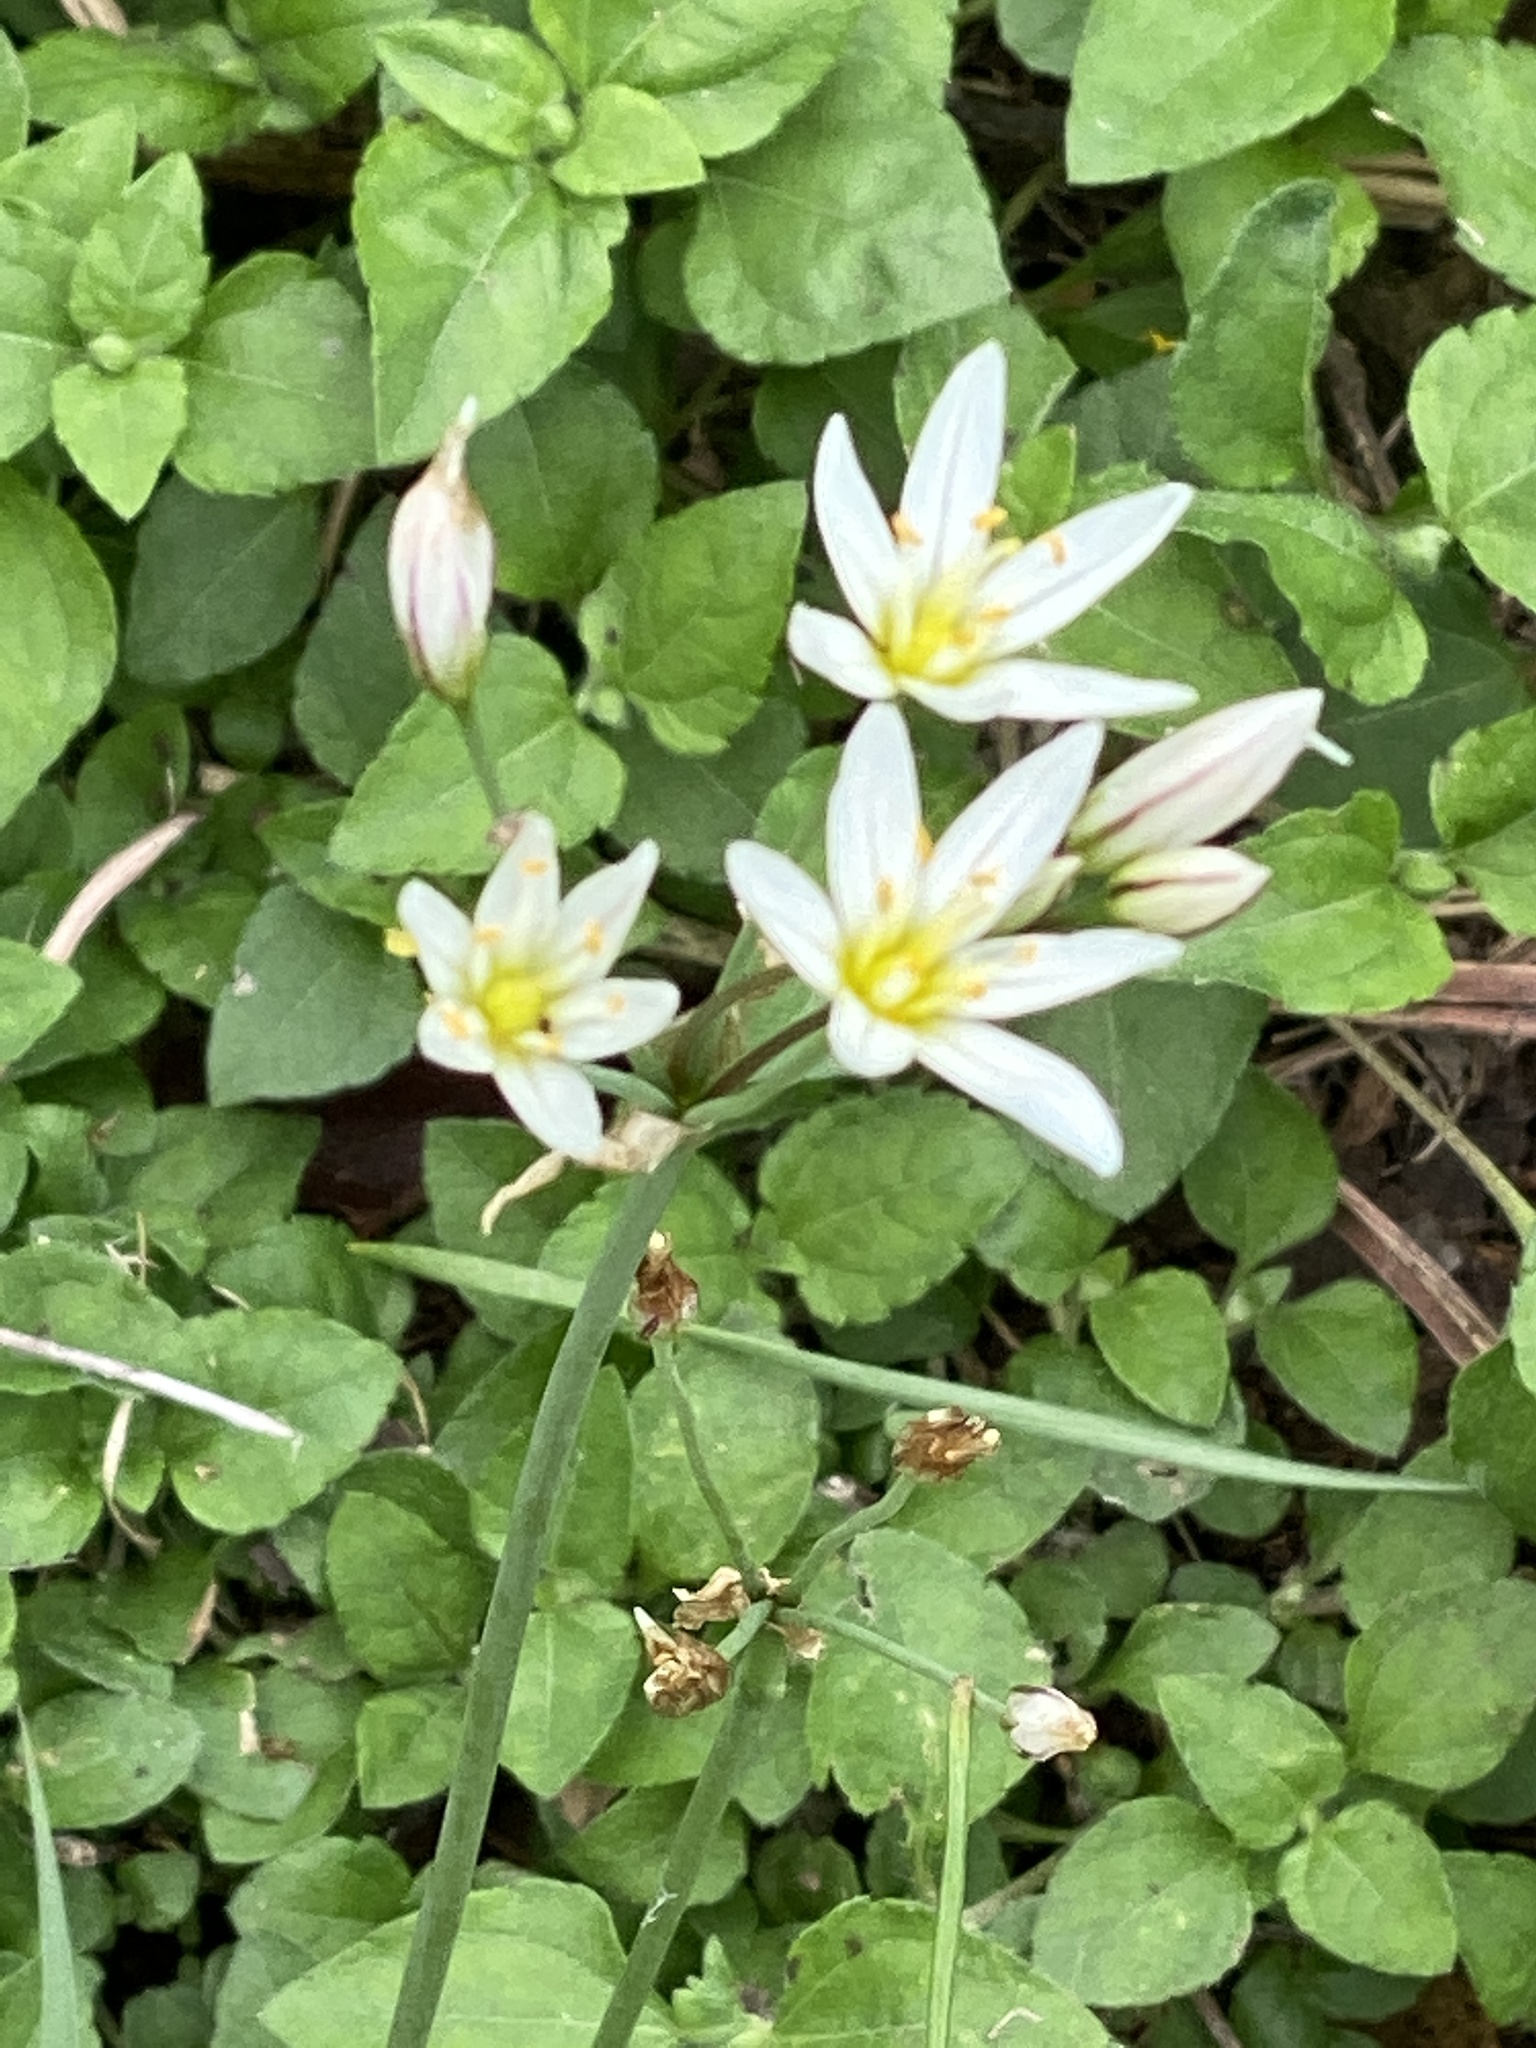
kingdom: Plantae
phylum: Tracheophyta
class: Liliopsida
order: Asparagales
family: Amaryllidaceae
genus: Nothoscordum
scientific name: Nothoscordum bivalve
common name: Crow-poison
